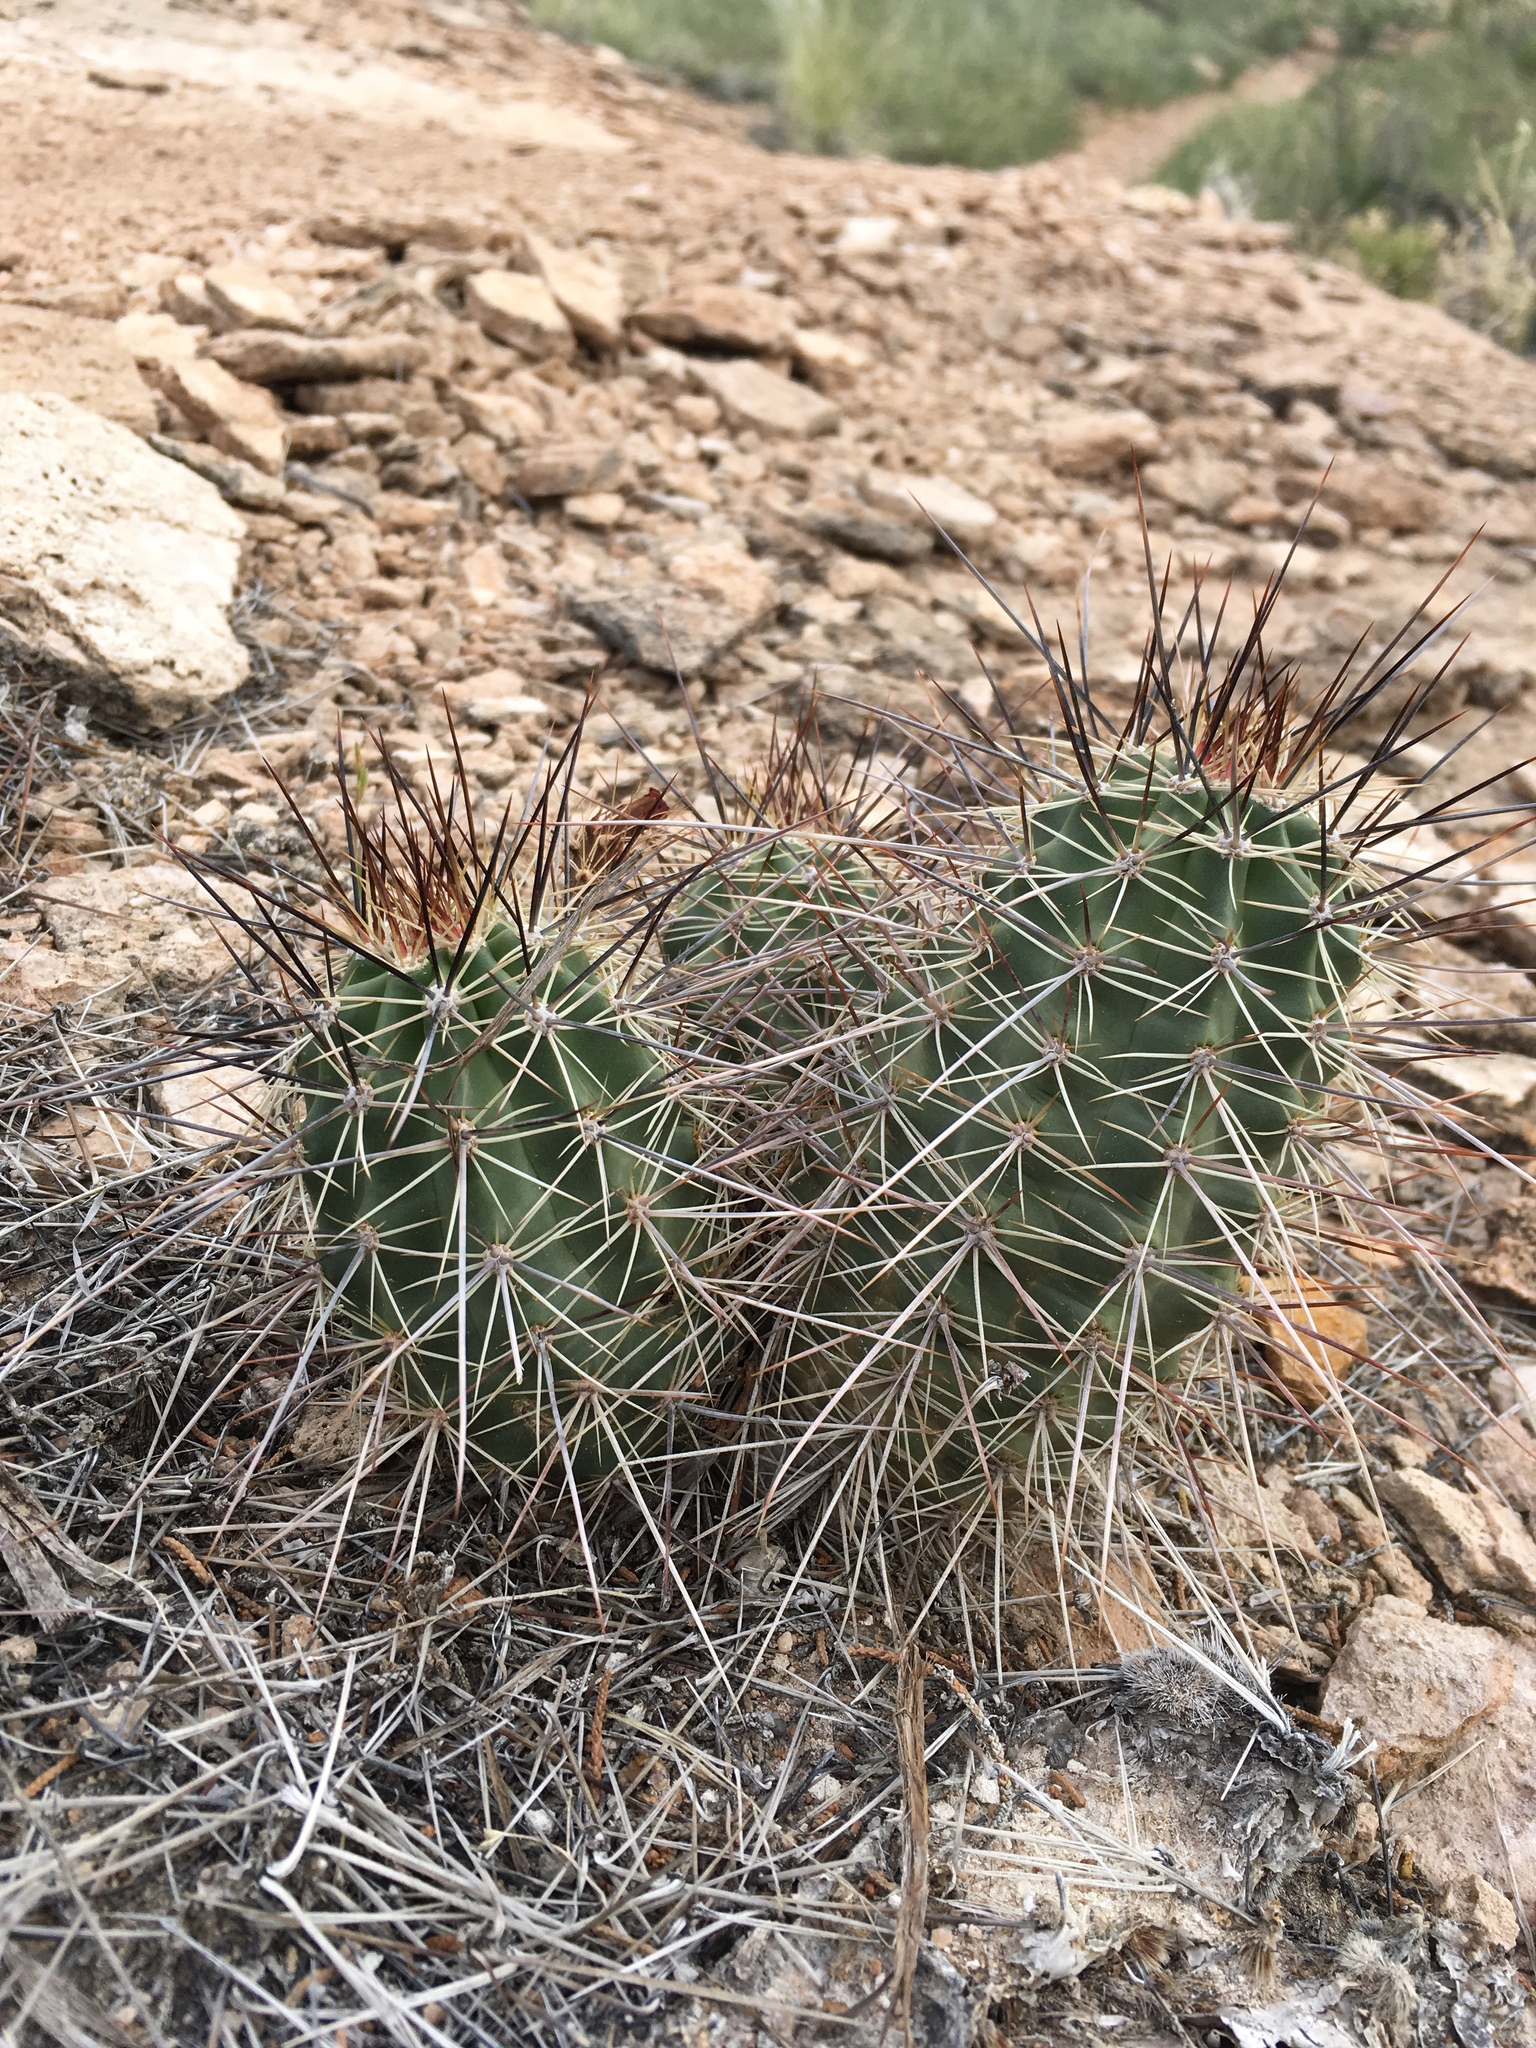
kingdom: Plantae
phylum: Tracheophyta
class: Magnoliopsida
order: Caryophyllales
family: Cactaceae
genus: Echinocereus
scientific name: Echinocereus coccineus
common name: Scarlet hedgehog cactus
